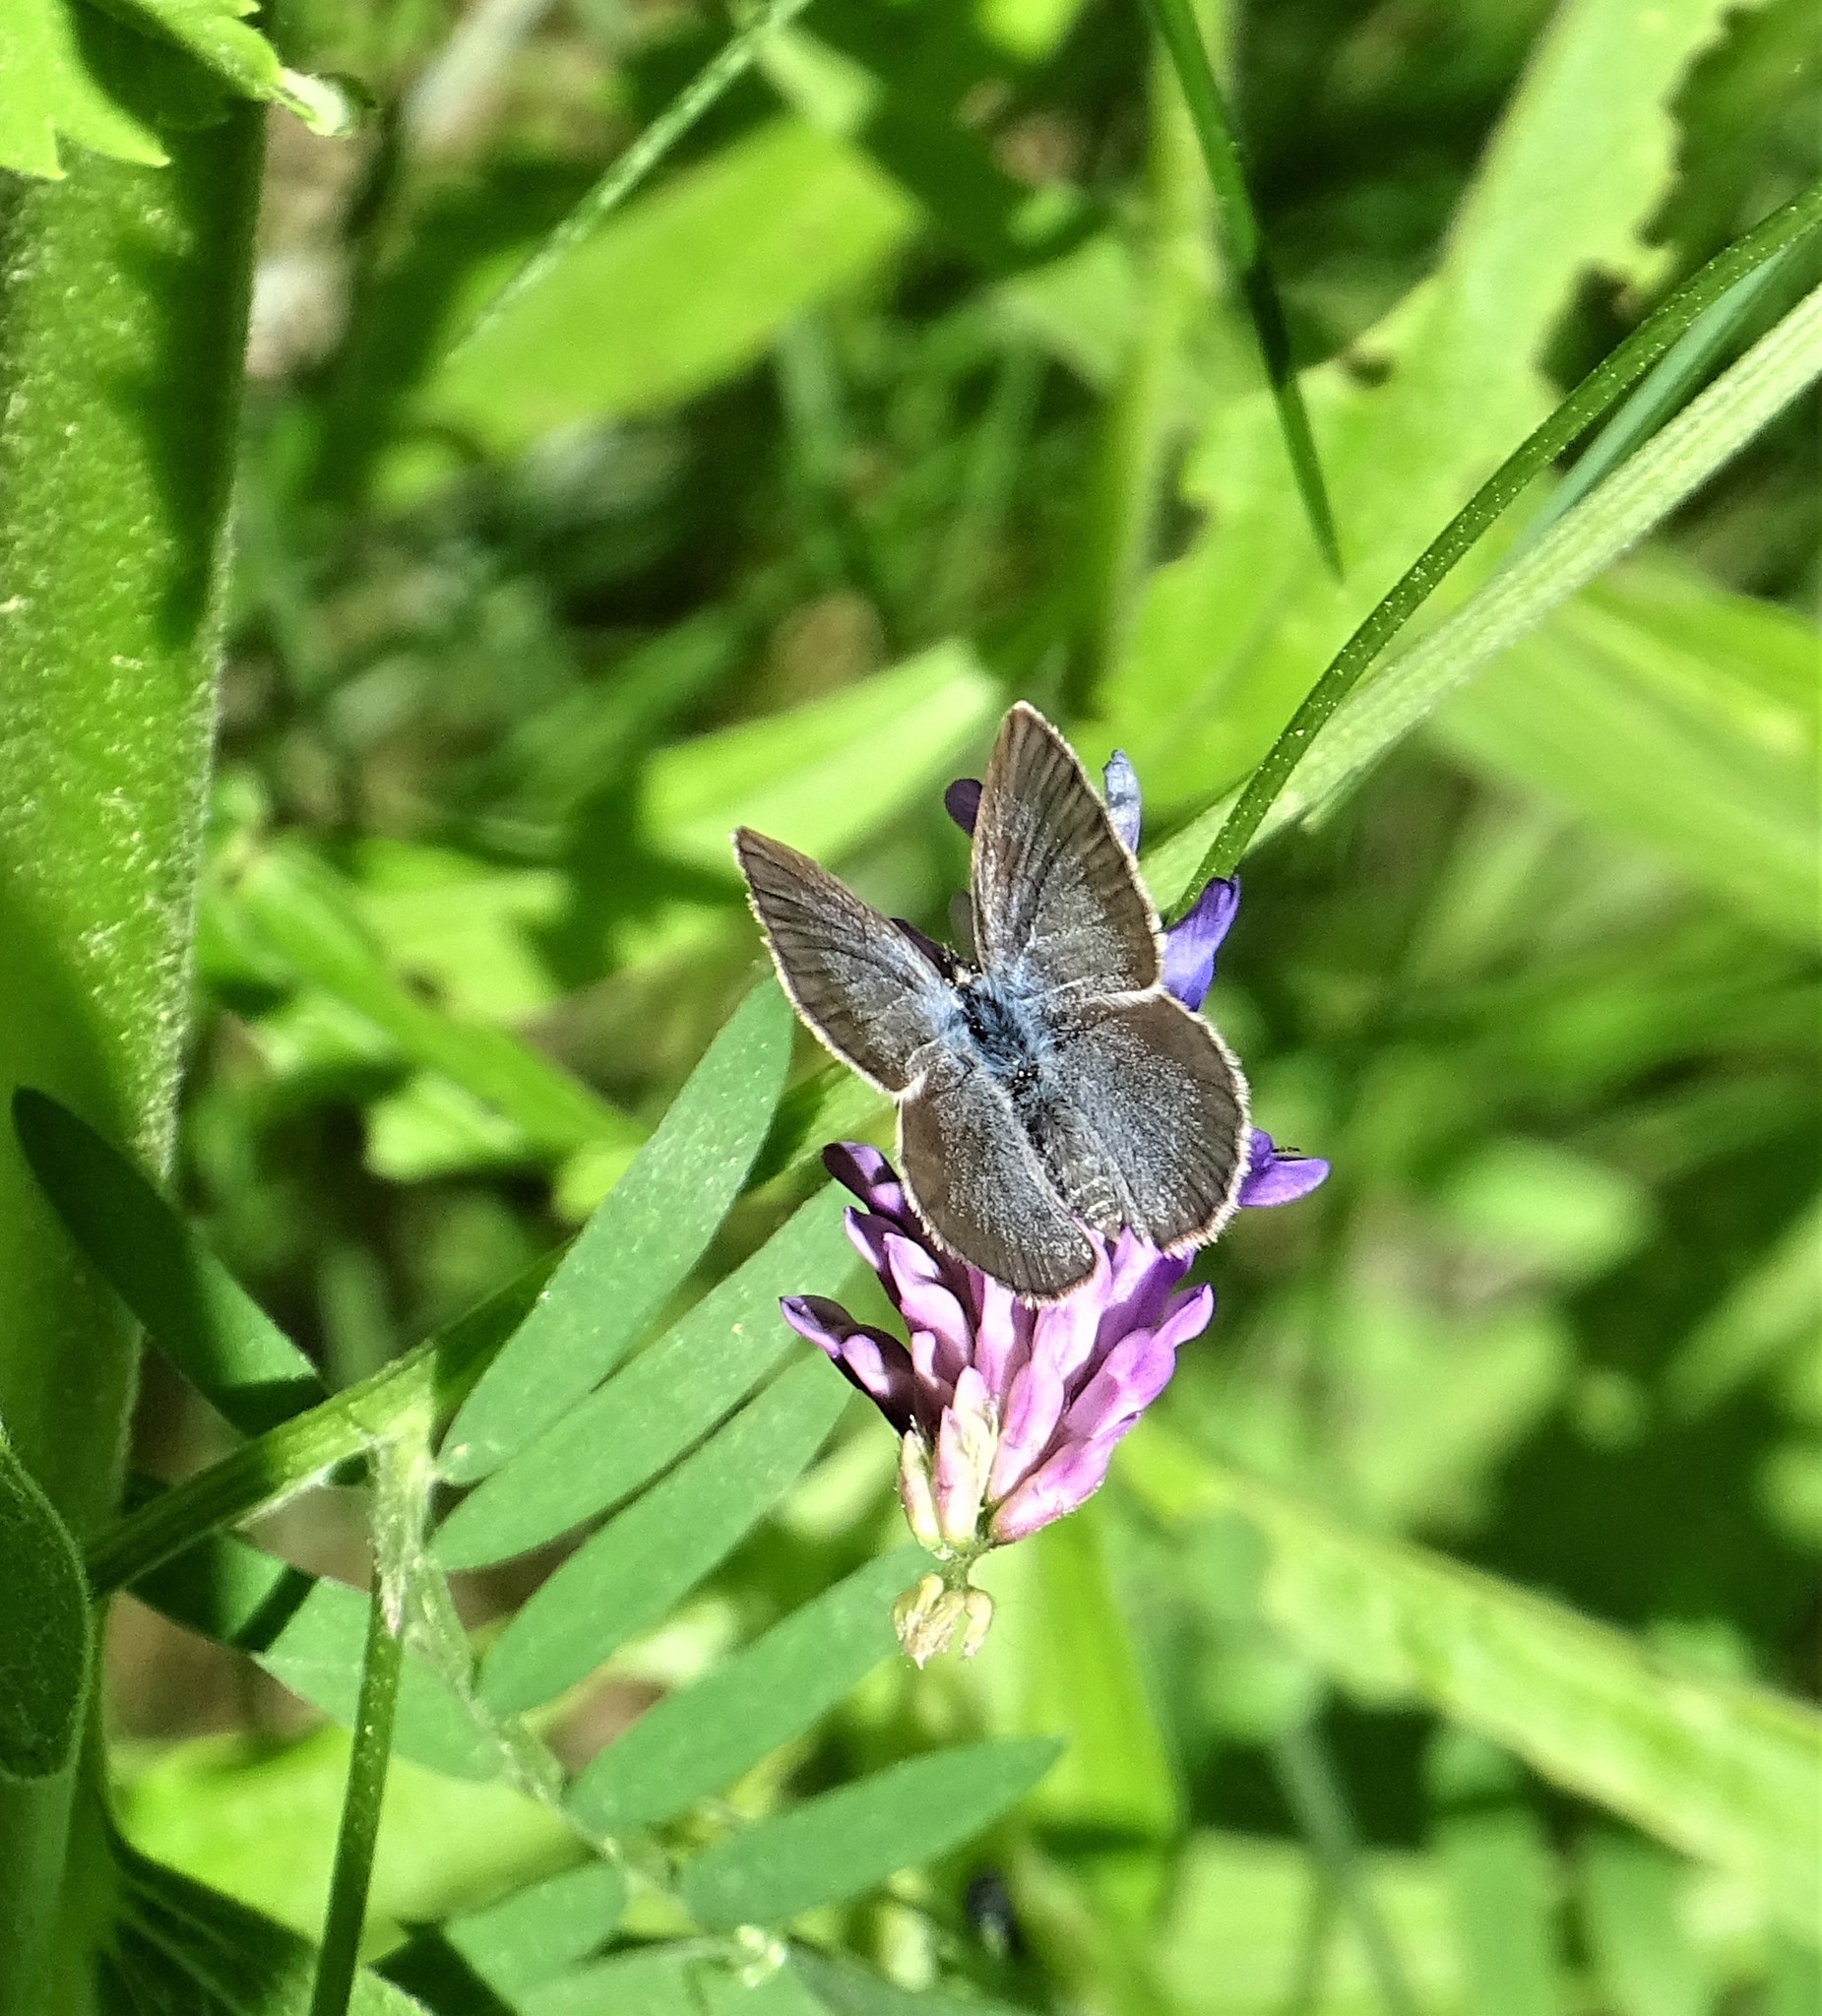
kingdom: Animalia
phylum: Arthropoda
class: Insecta
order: Lepidoptera
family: Lycaenidae
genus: Glaucopsyche
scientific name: Glaucopsyche lygdamus
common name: Silvery blue
